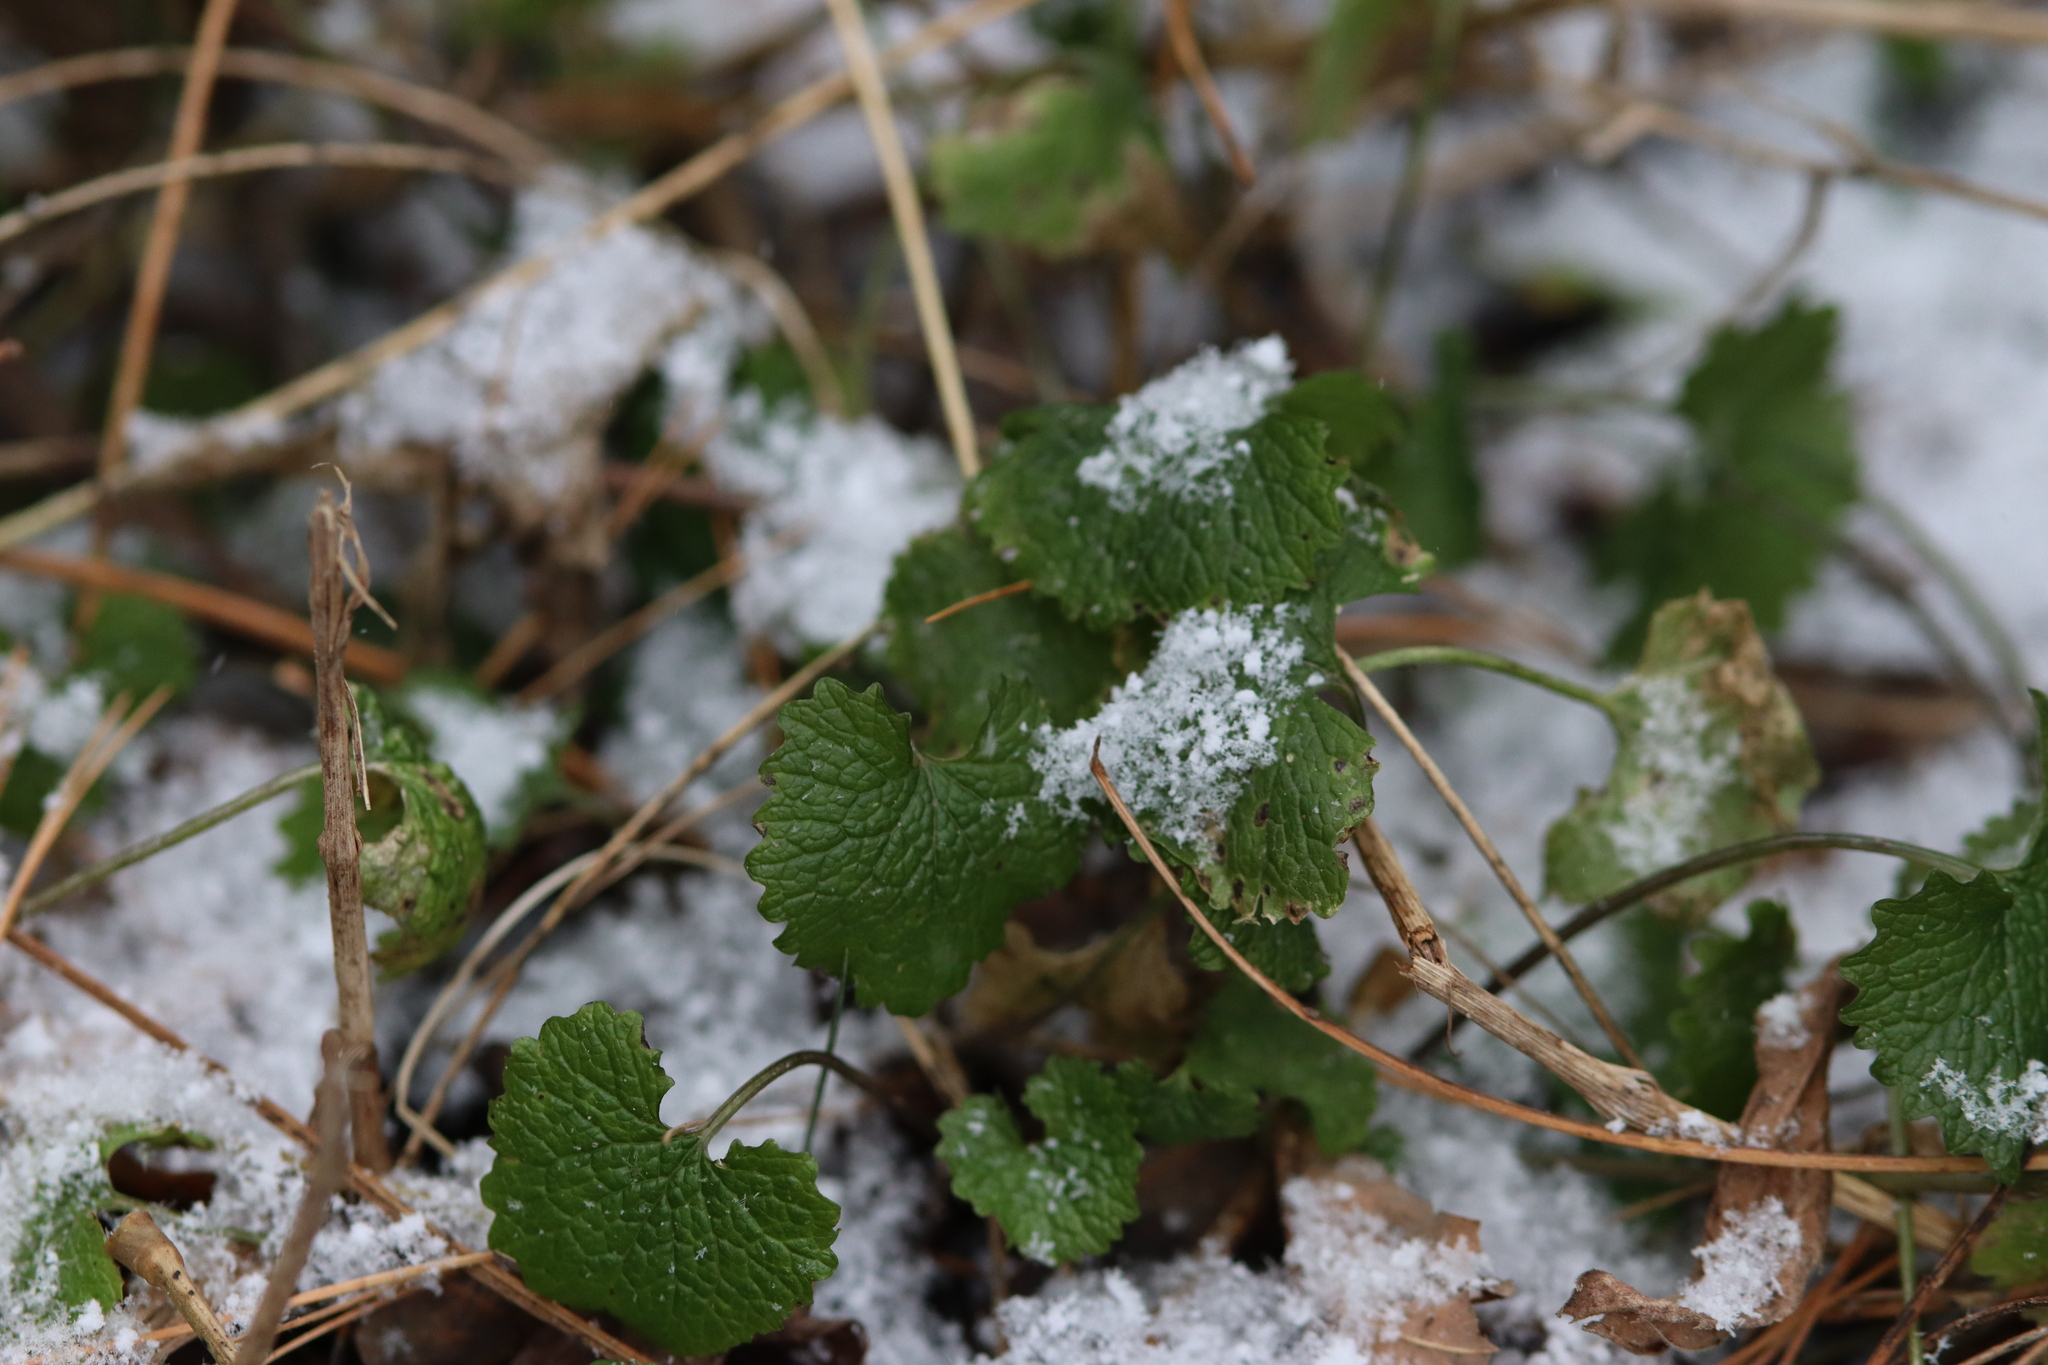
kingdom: Plantae
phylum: Tracheophyta
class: Magnoliopsida
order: Brassicales
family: Brassicaceae
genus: Alliaria
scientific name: Alliaria petiolata
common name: Garlic mustard
